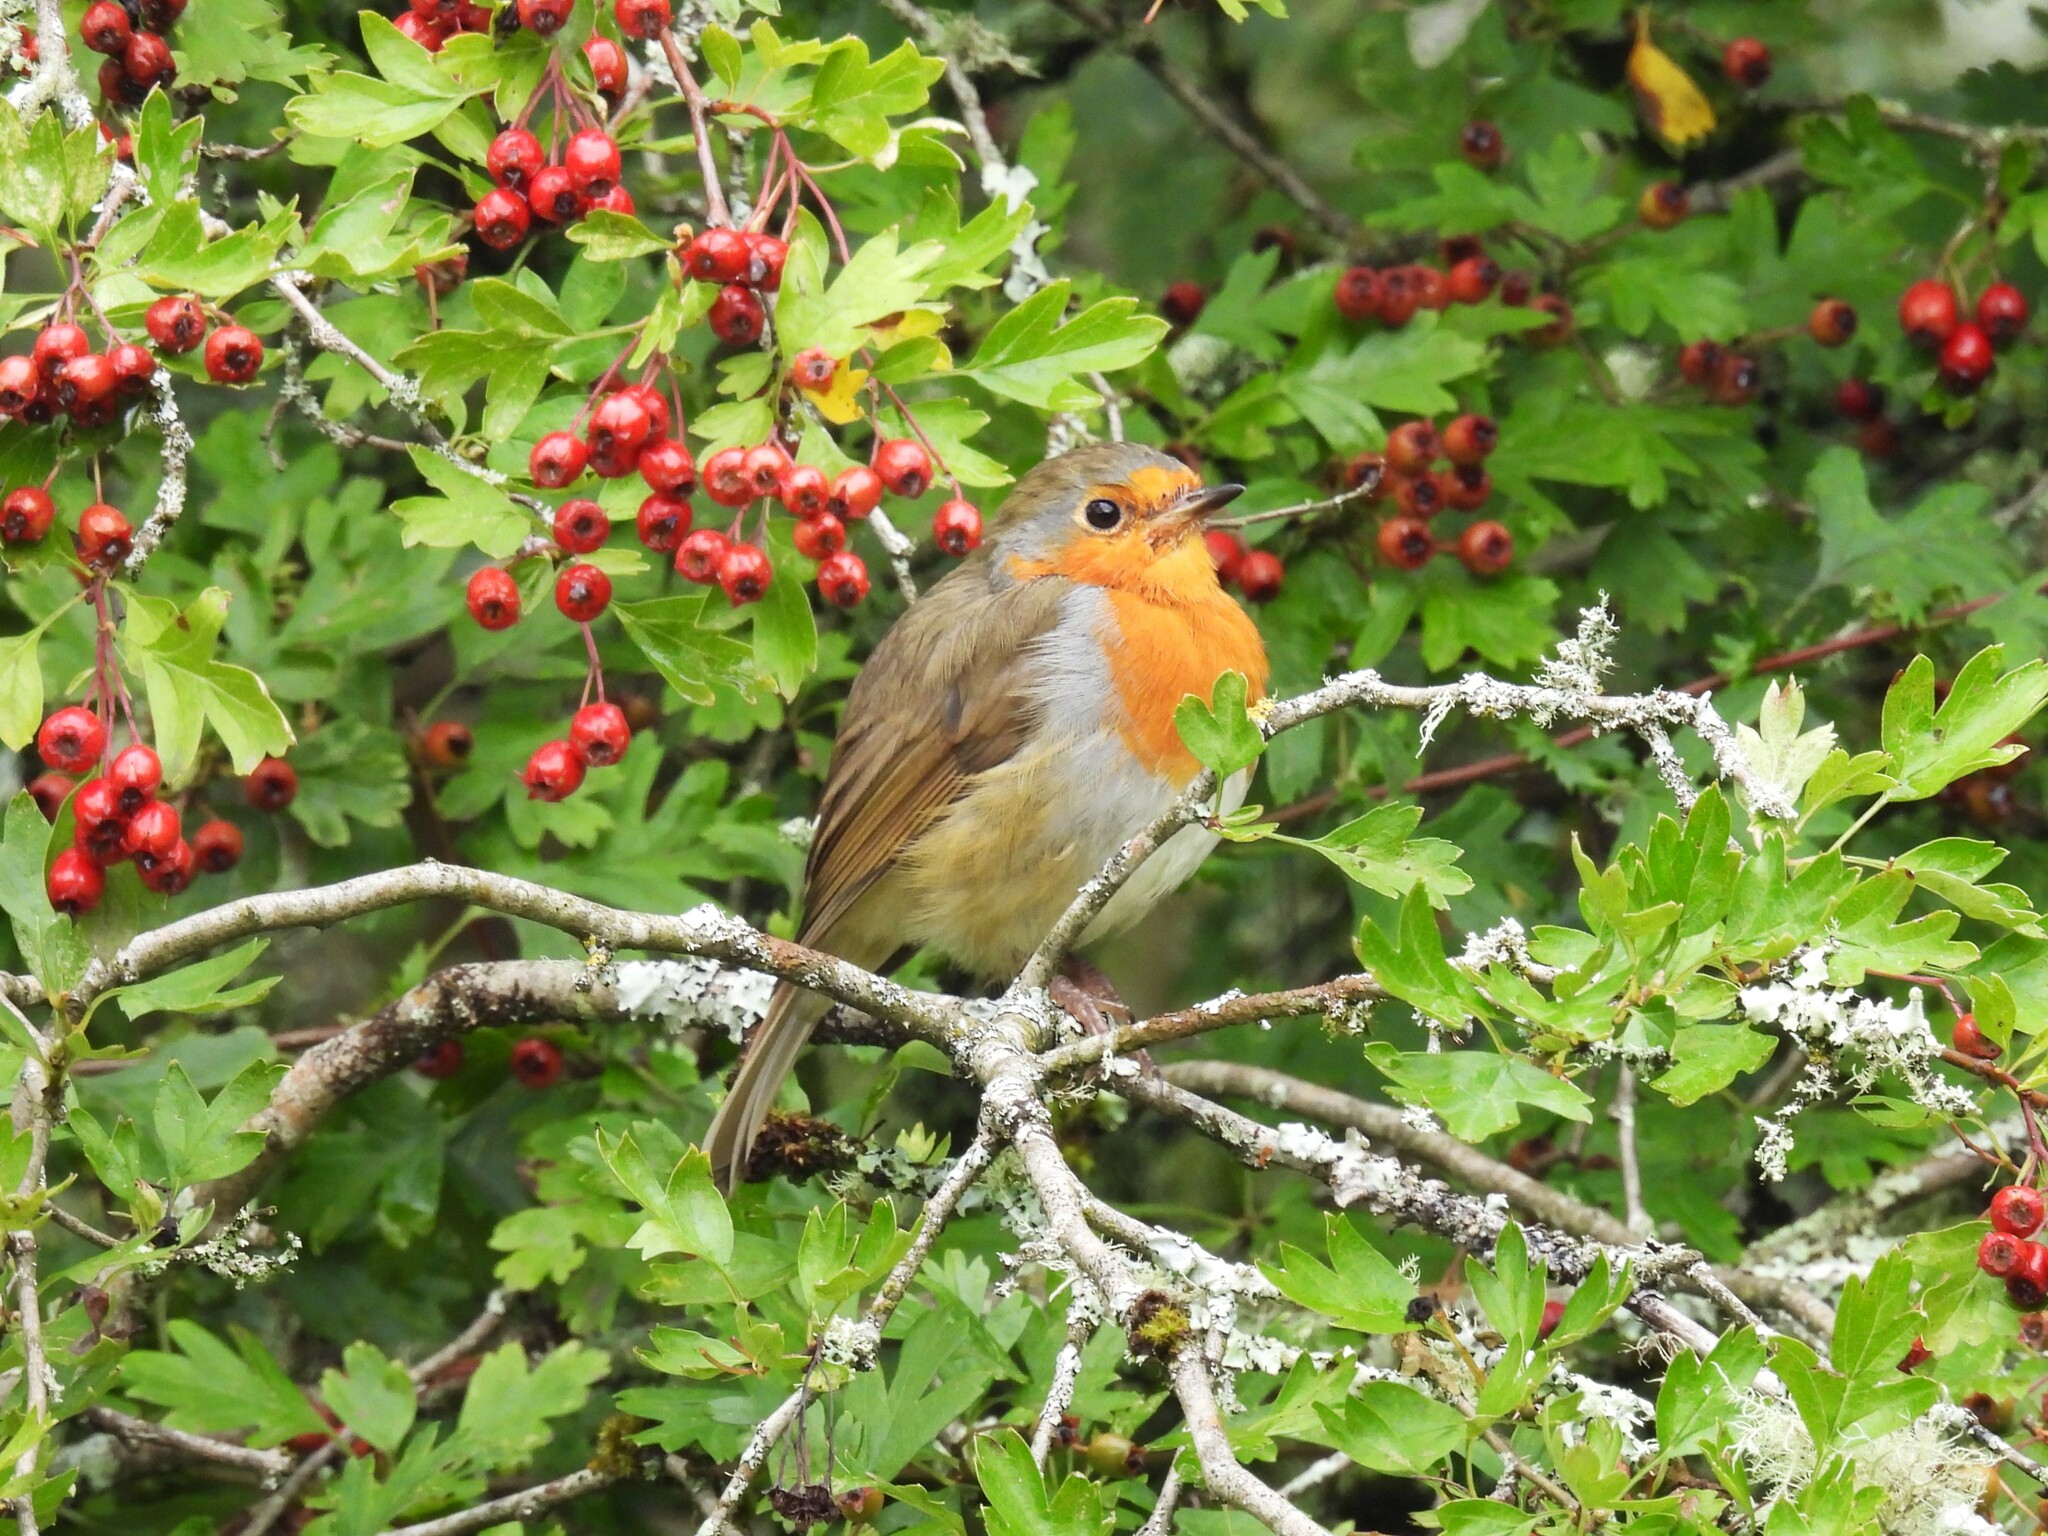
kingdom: Animalia
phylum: Chordata
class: Aves
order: Passeriformes
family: Muscicapidae
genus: Erithacus
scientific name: Erithacus rubecula
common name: European robin
